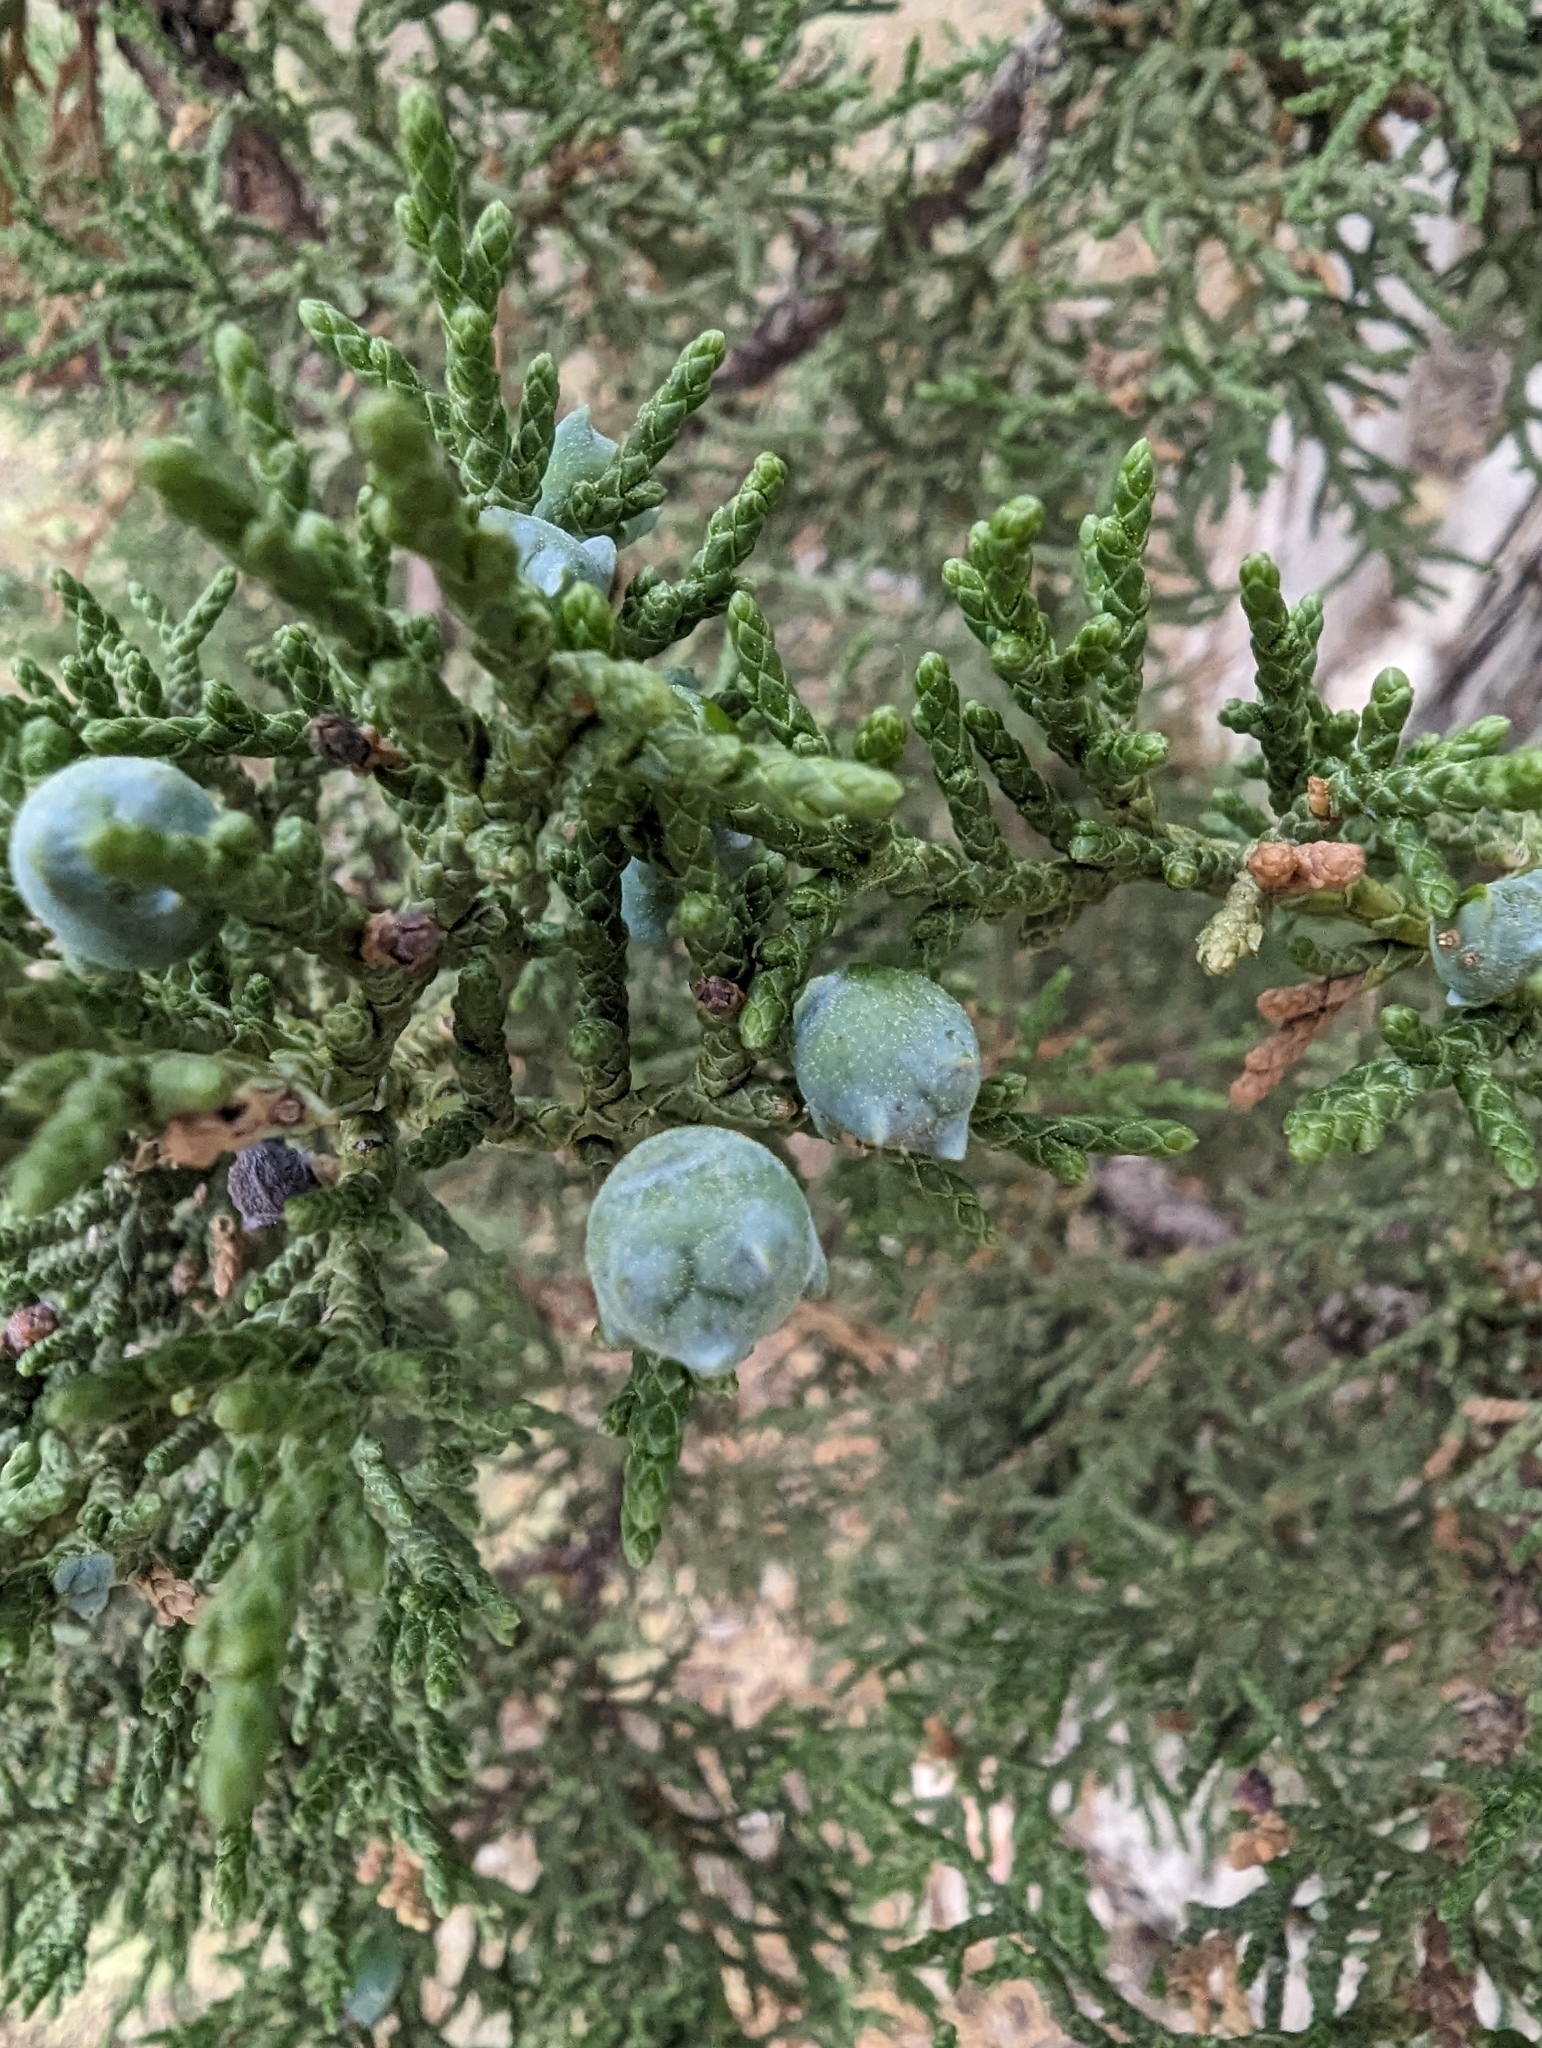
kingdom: Plantae
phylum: Tracheophyta
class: Pinopsida
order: Pinales
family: Cupressaceae
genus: Juniperus
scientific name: Juniperus osteosperma
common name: Utah juniper
